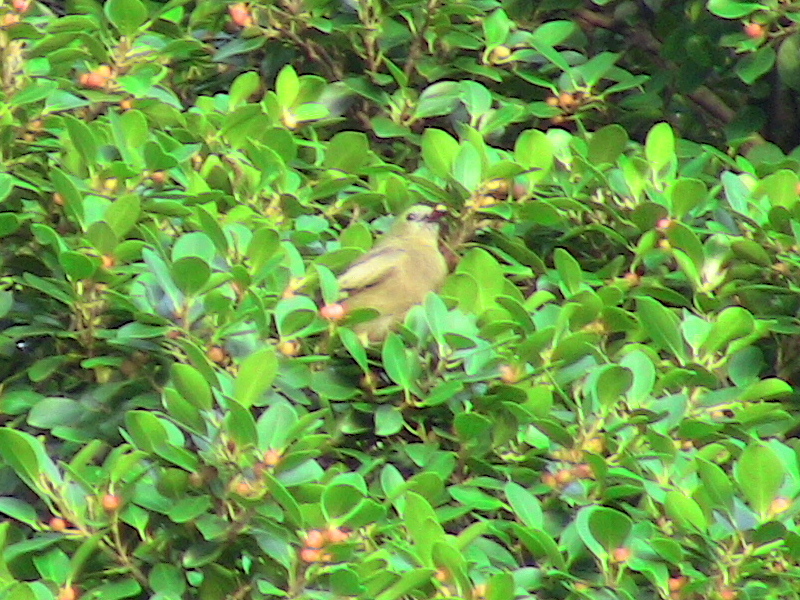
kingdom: Animalia
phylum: Chordata
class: Aves
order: Passeriformes
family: Thraupidae
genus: Thraupis
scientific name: Thraupis palmarum
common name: Palm tanager
